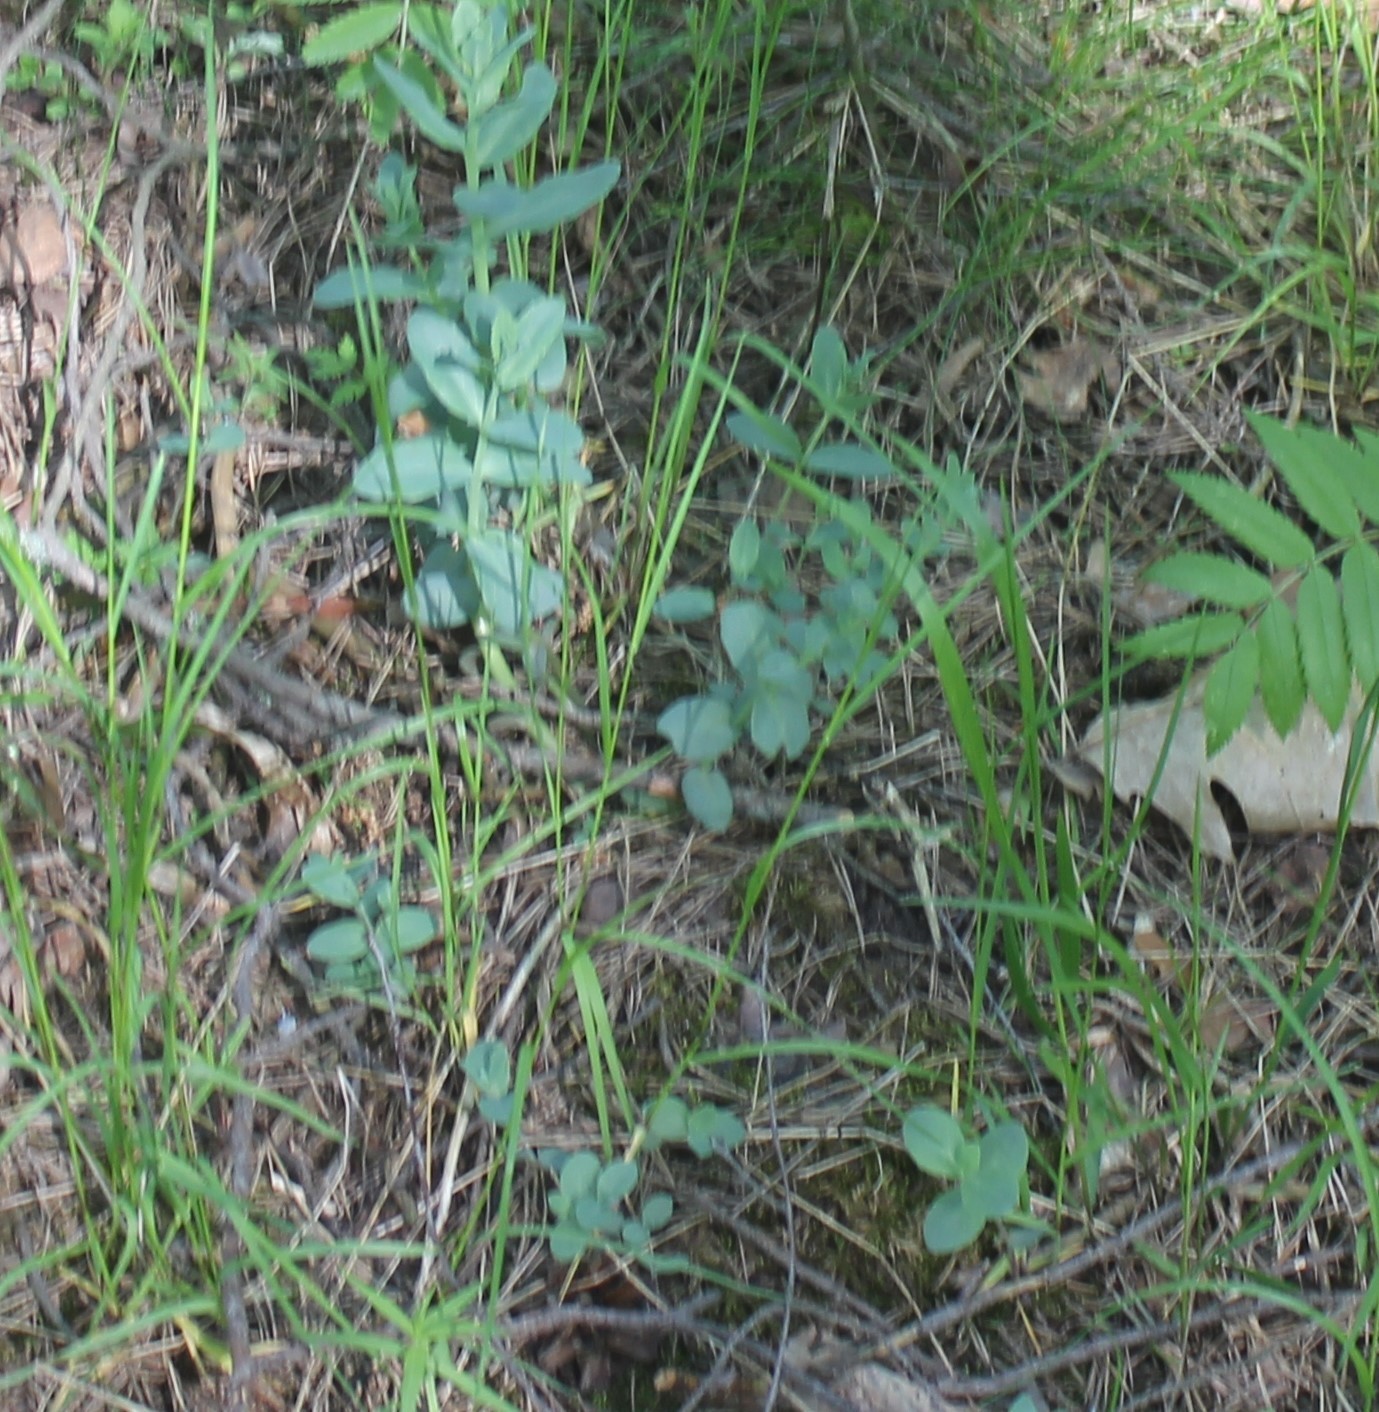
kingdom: Plantae
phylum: Tracheophyta
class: Magnoliopsida
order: Saxifragales
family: Crassulaceae
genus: Hylotelephium
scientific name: Hylotelephium maximum
